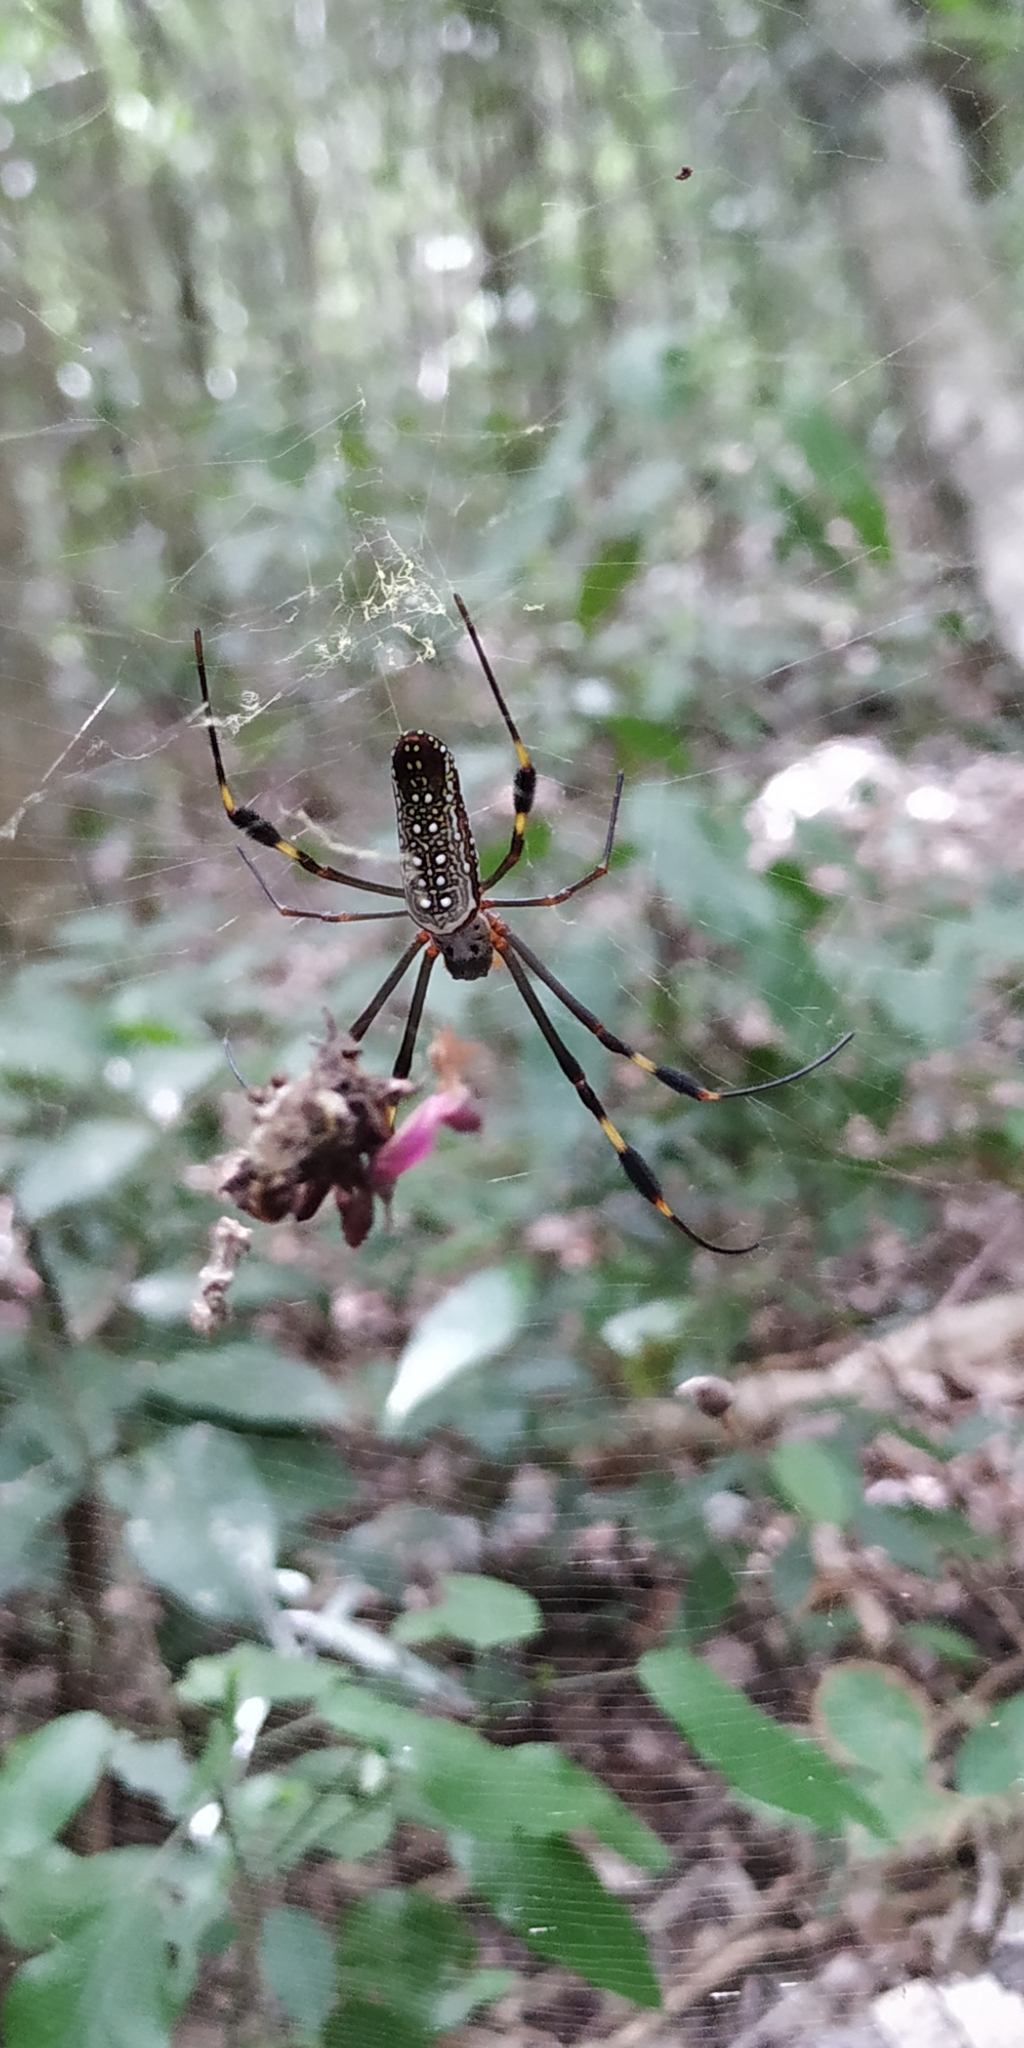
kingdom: Animalia
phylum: Arthropoda
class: Arachnida
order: Araneae
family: Araneidae
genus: Trichonephila
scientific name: Trichonephila clavipes
